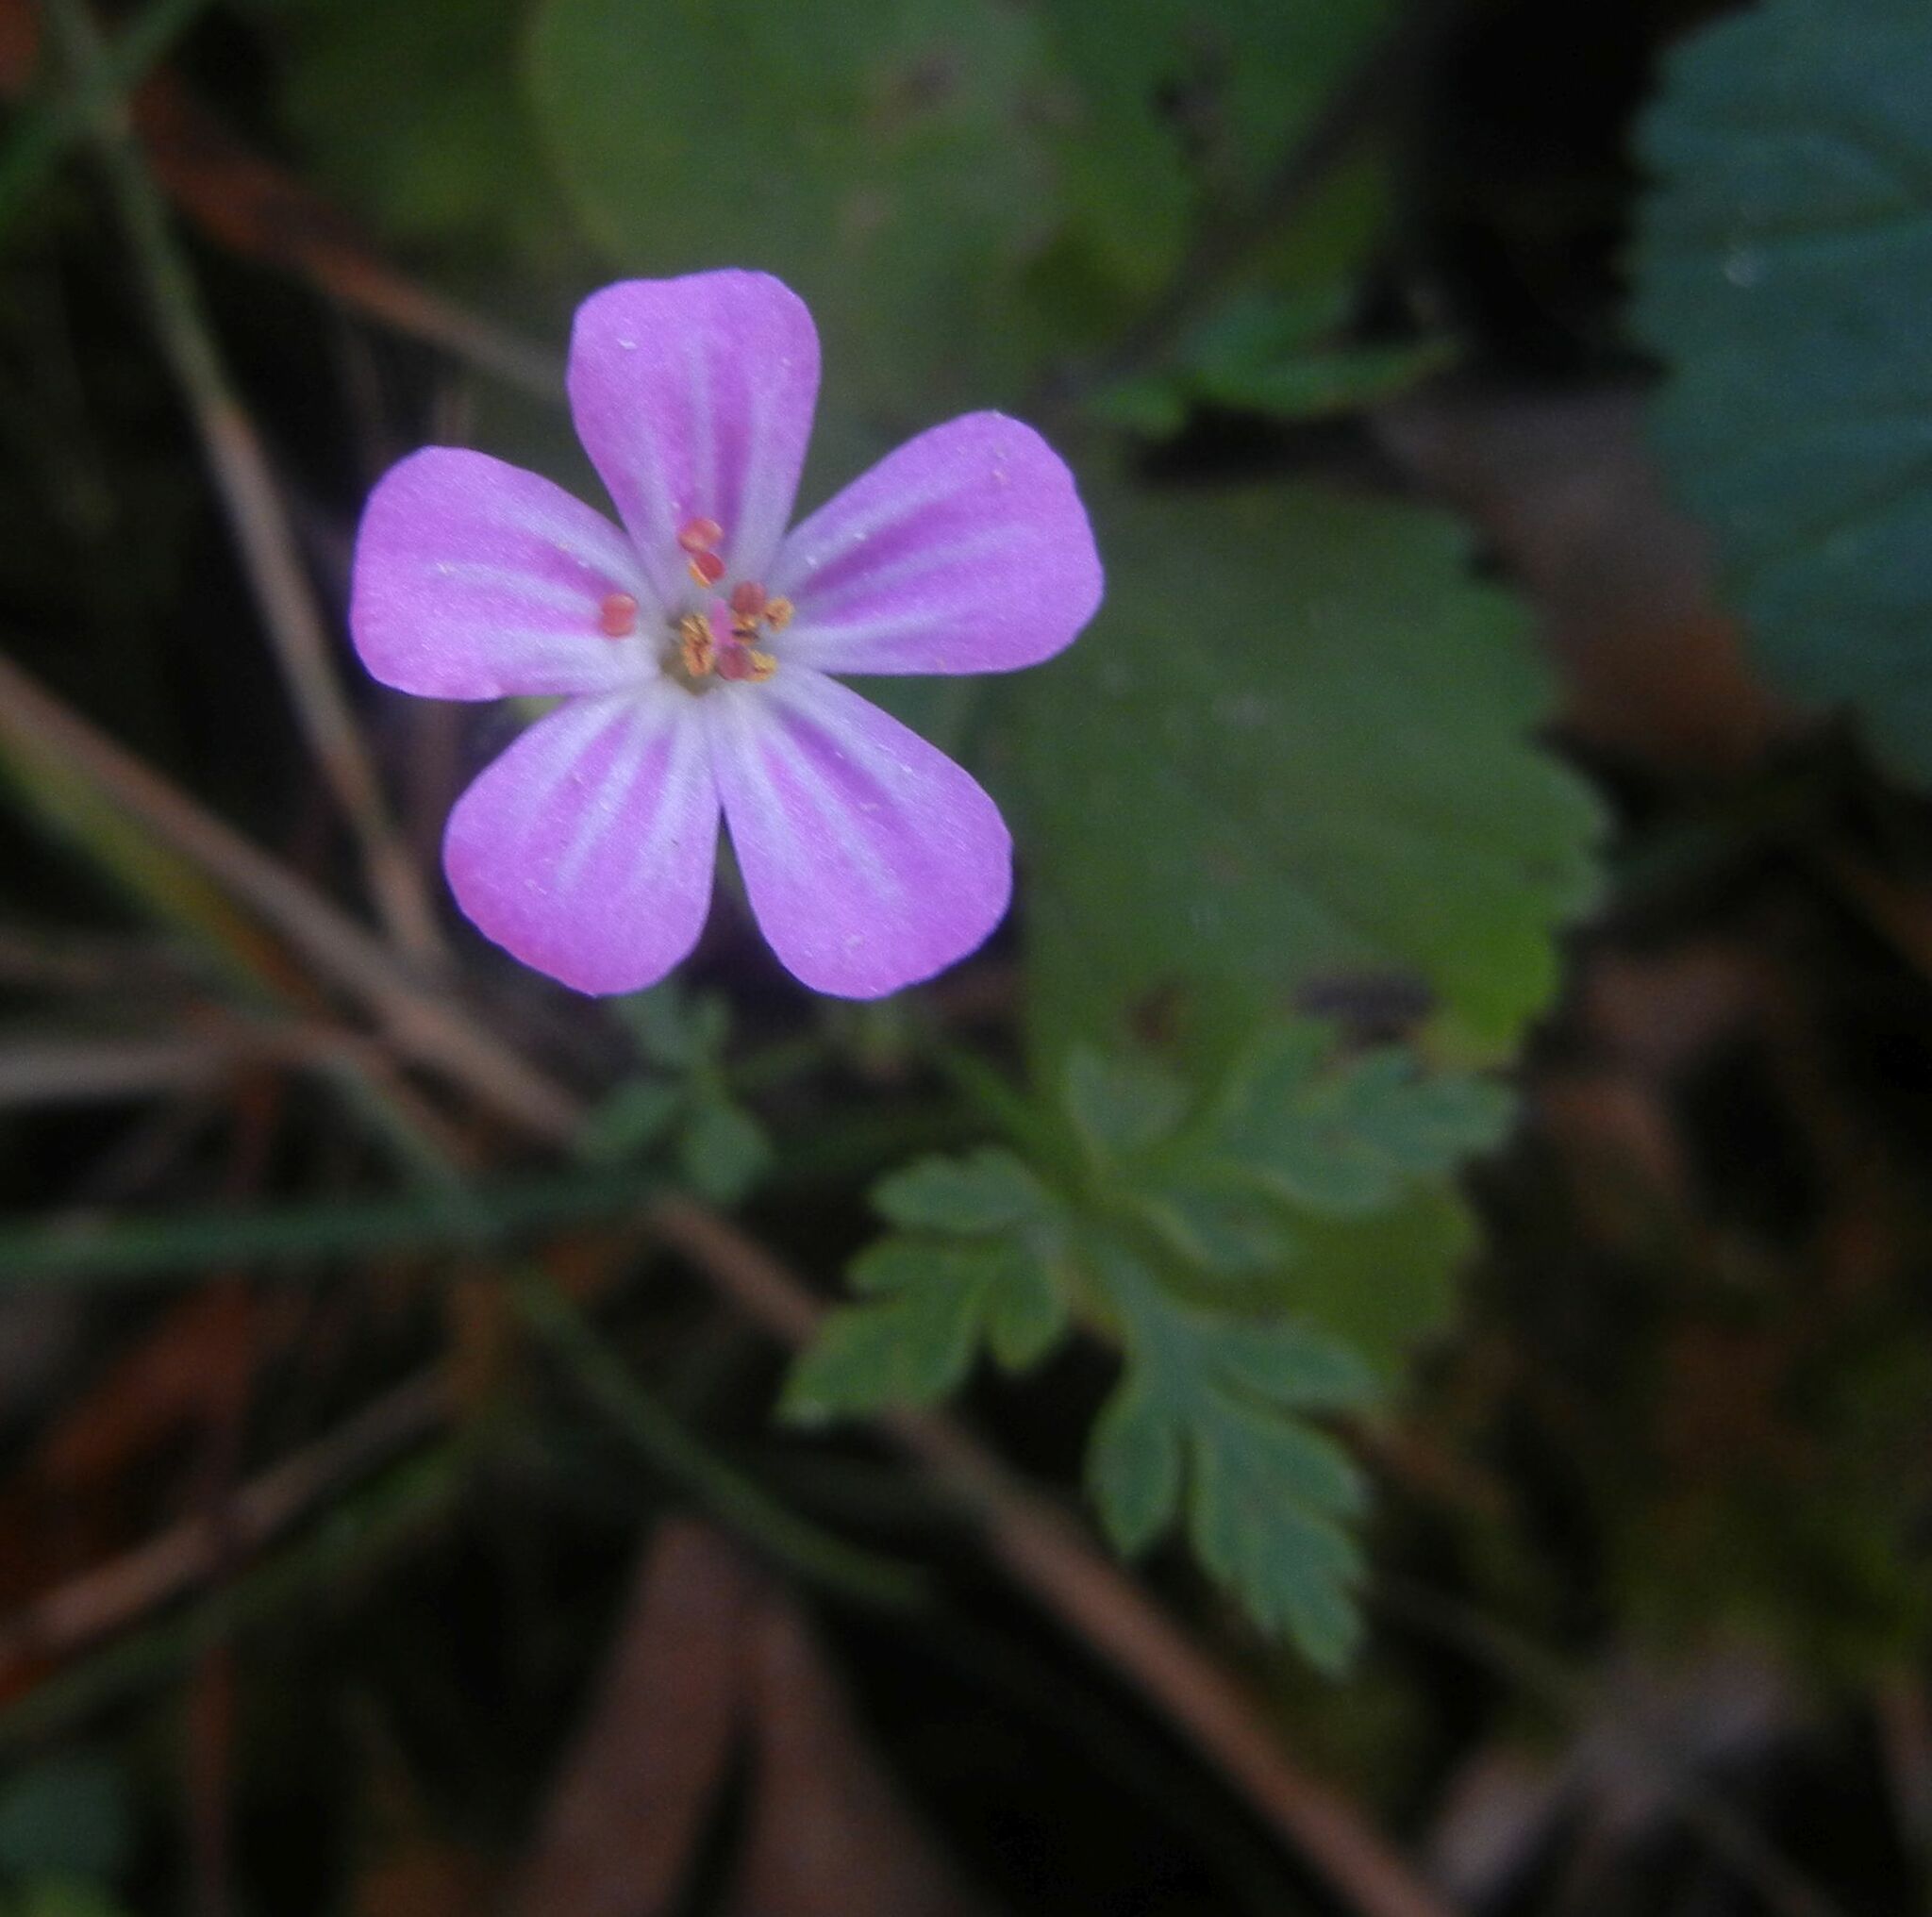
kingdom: Plantae
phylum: Tracheophyta
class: Magnoliopsida
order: Geraniales
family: Geraniaceae
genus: Geranium
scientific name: Geranium robertianum
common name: Herb-robert
